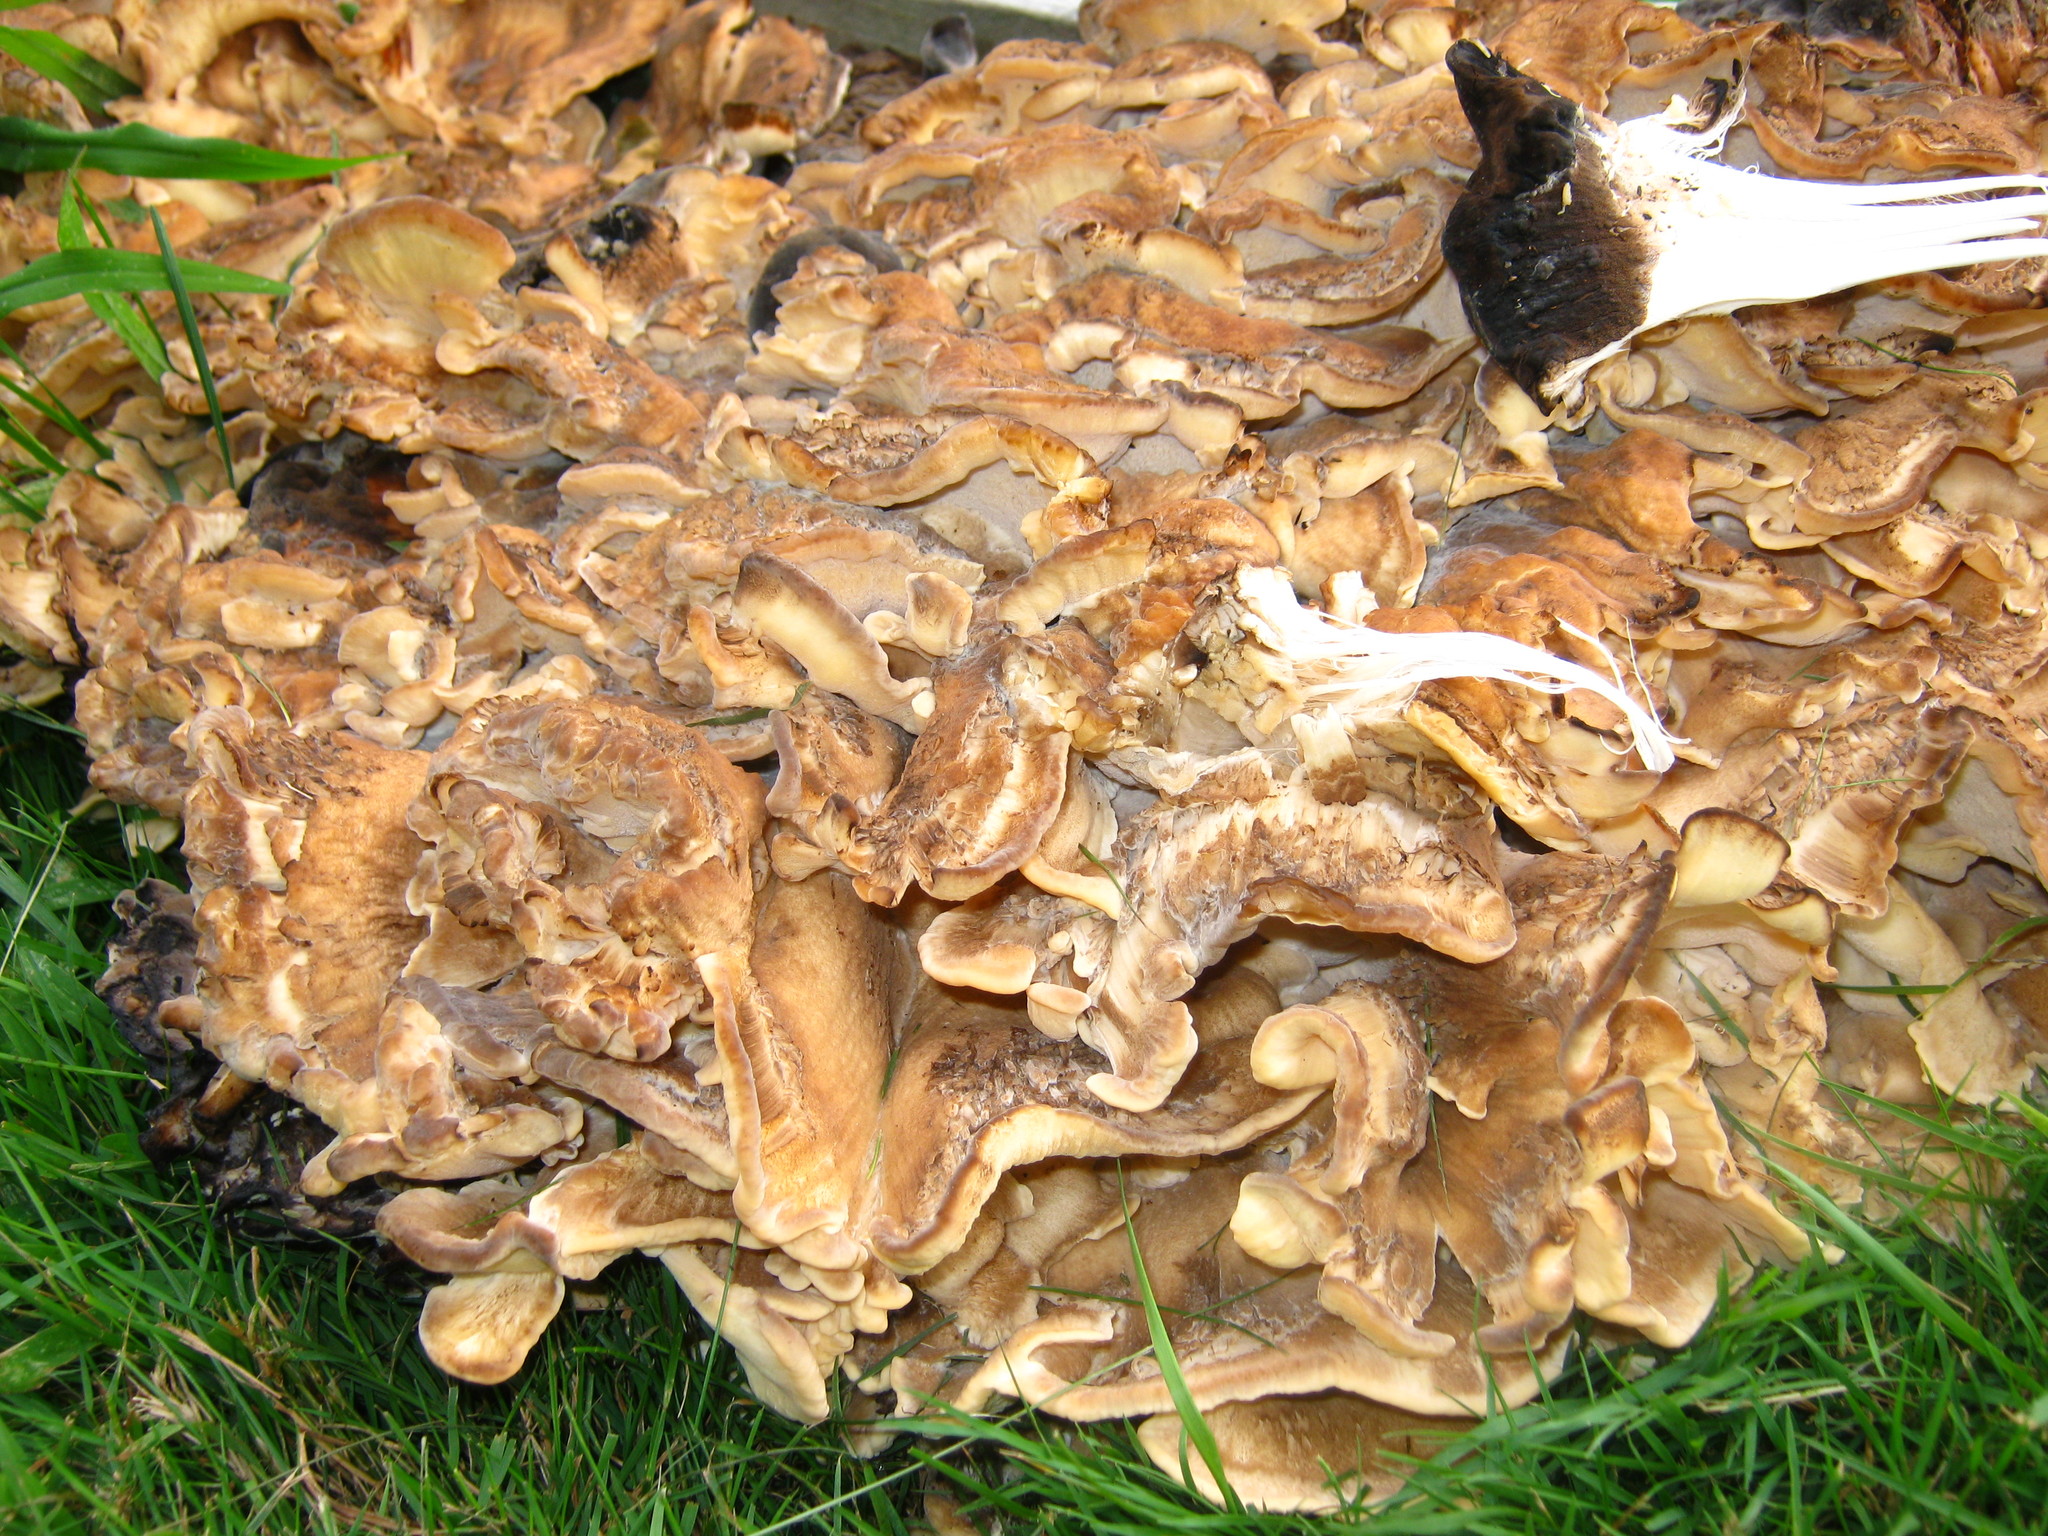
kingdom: Fungi
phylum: Basidiomycota
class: Agaricomycetes
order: Polyporales
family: Meripilaceae
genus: Meripilus
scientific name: Meripilus sumstinei
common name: Black-staining polypore
